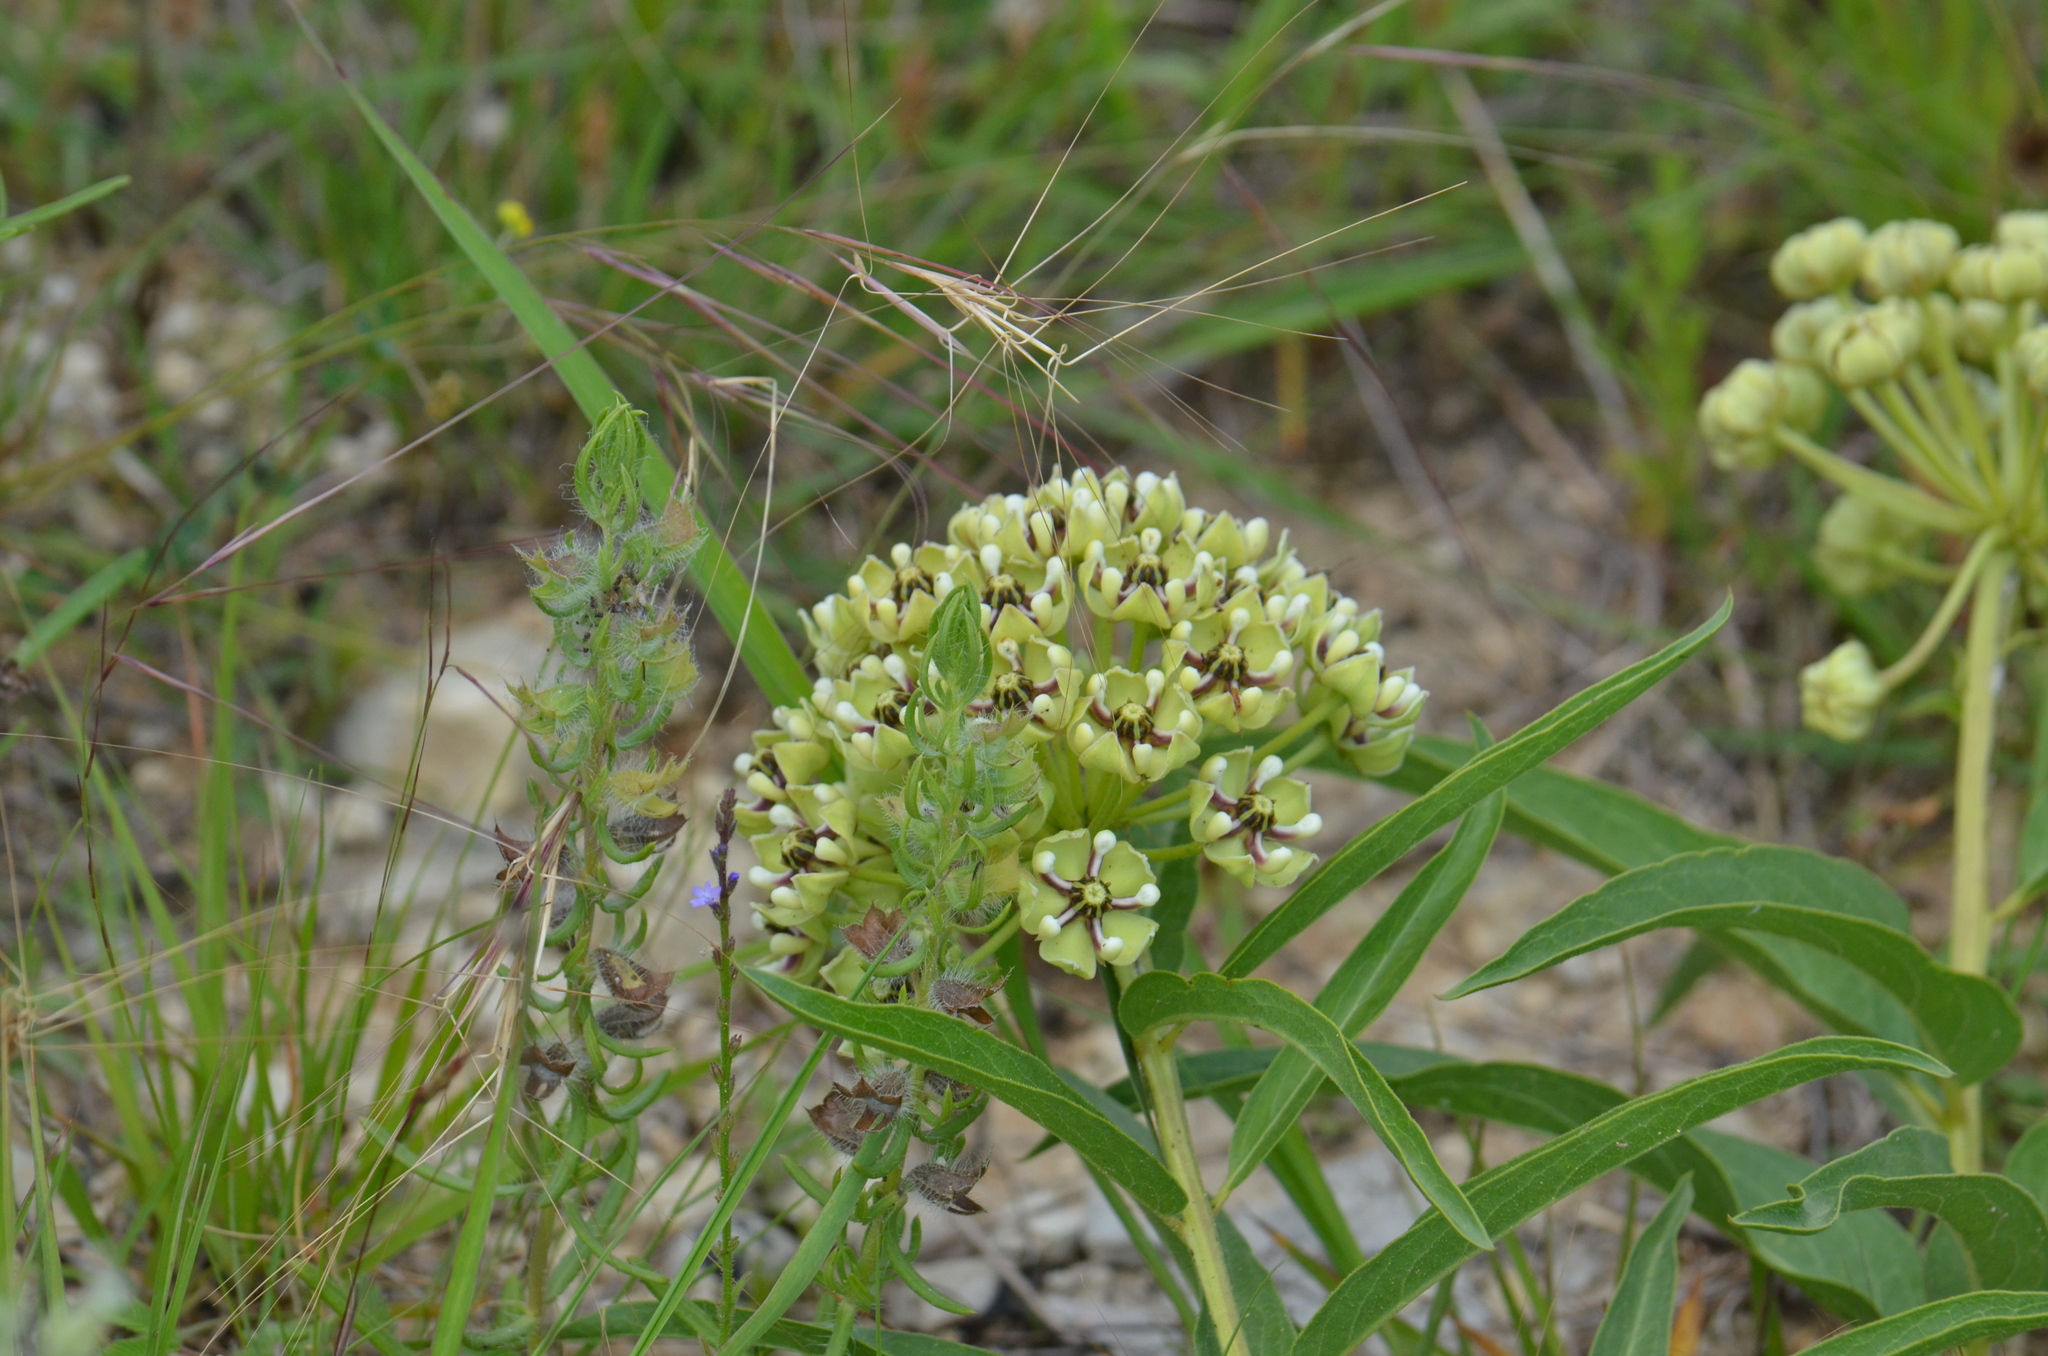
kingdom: Plantae
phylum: Tracheophyta
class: Magnoliopsida
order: Gentianales
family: Apocynaceae
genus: Asclepias
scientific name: Asclepias asperula
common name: Antelope horns
